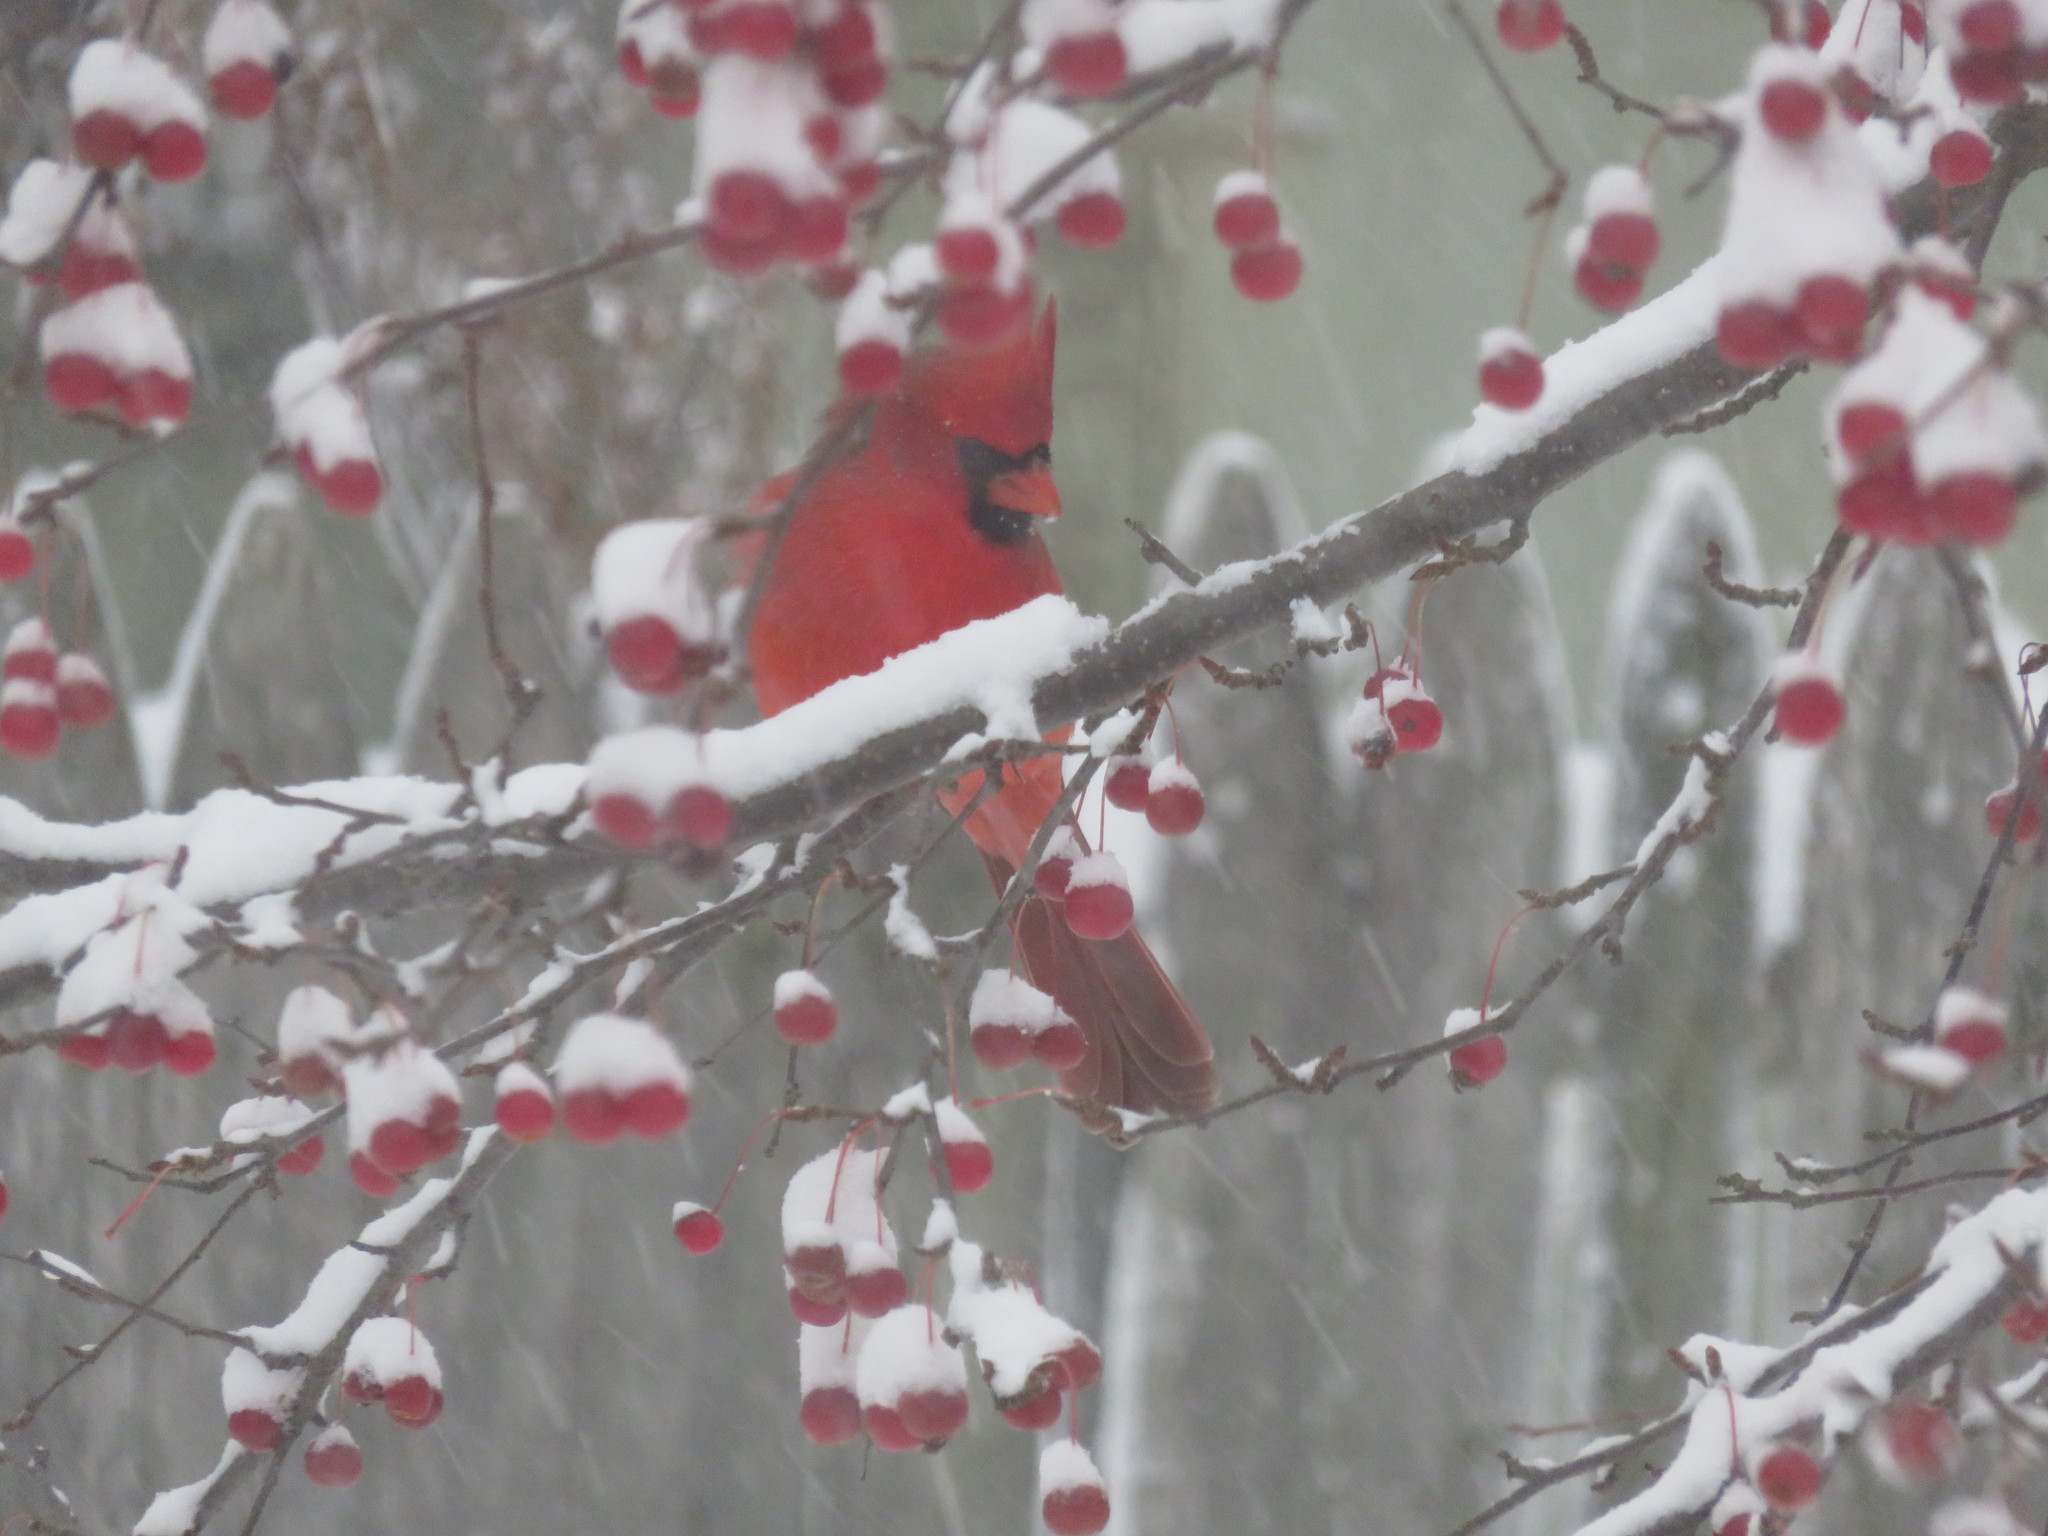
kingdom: Animalia
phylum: Chordata
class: Aves
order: Passeriformes
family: Cardinalidae
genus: Cardinalis
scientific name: Cardinalis cardinalis
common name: Northern cardinal
